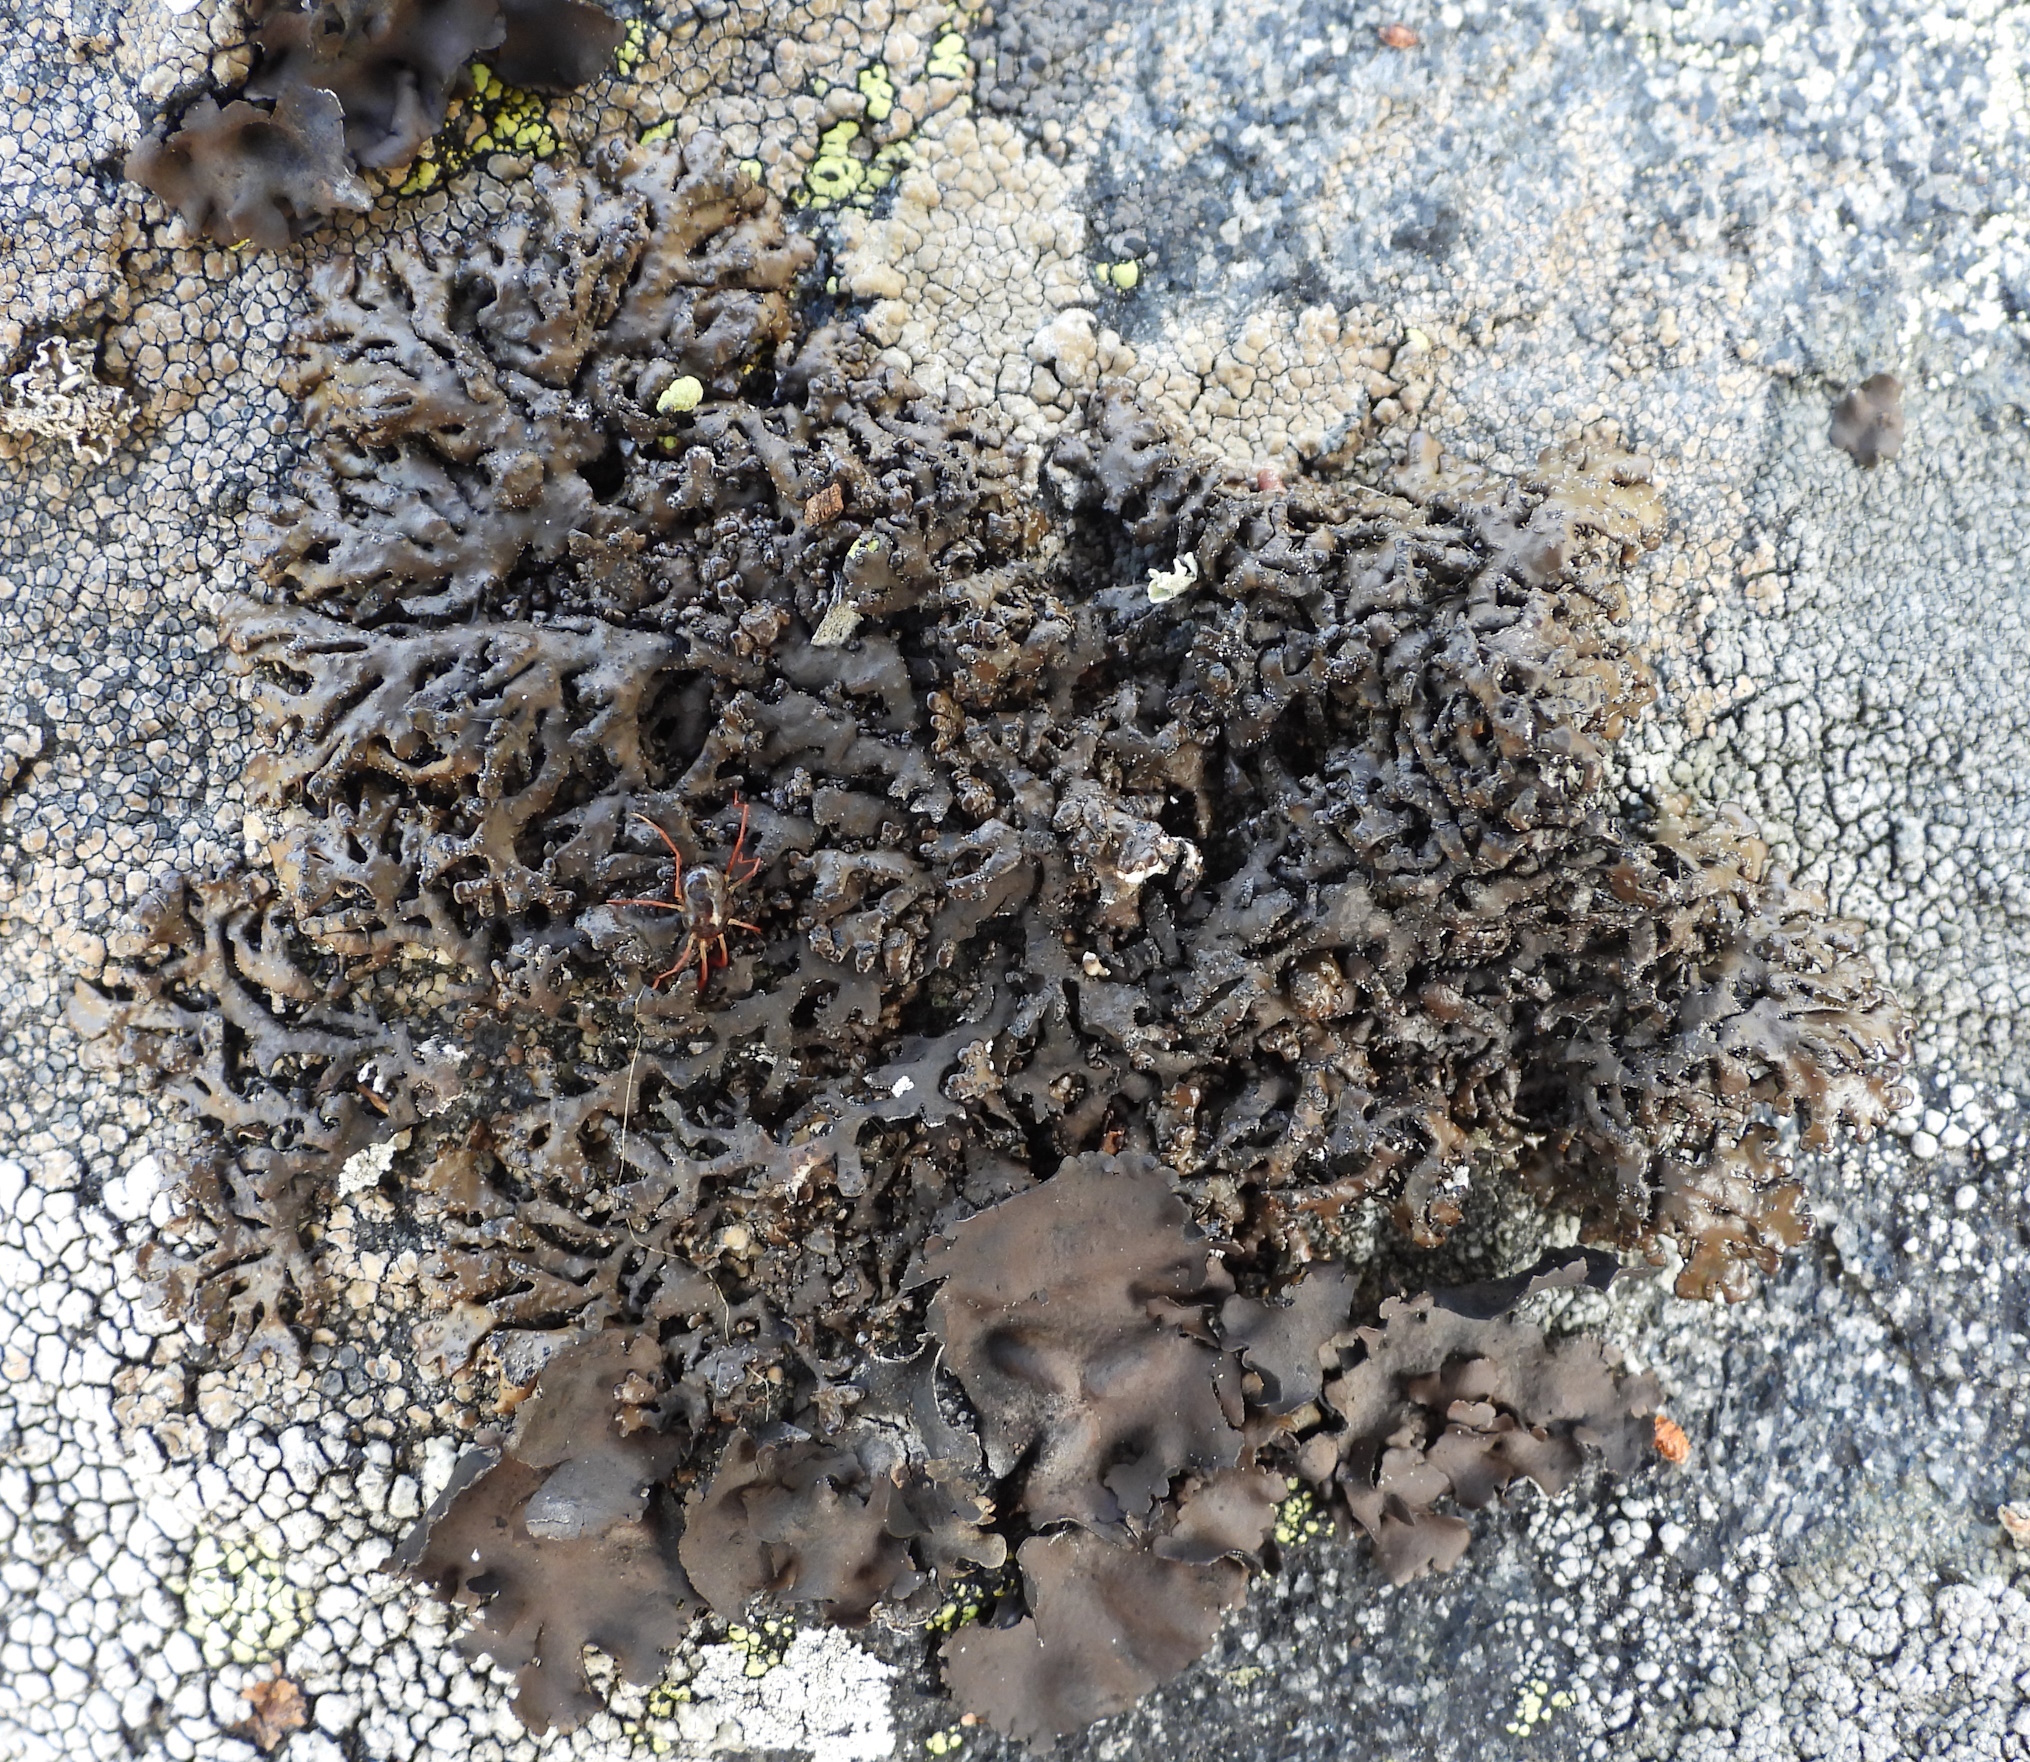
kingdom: Fungi
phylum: Ascomycota
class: Lecanoromycetes
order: Lecanorales
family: Parmeliaceae
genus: Melanelia
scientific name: Melanelia stygia
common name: Alpine camouflage lichen
